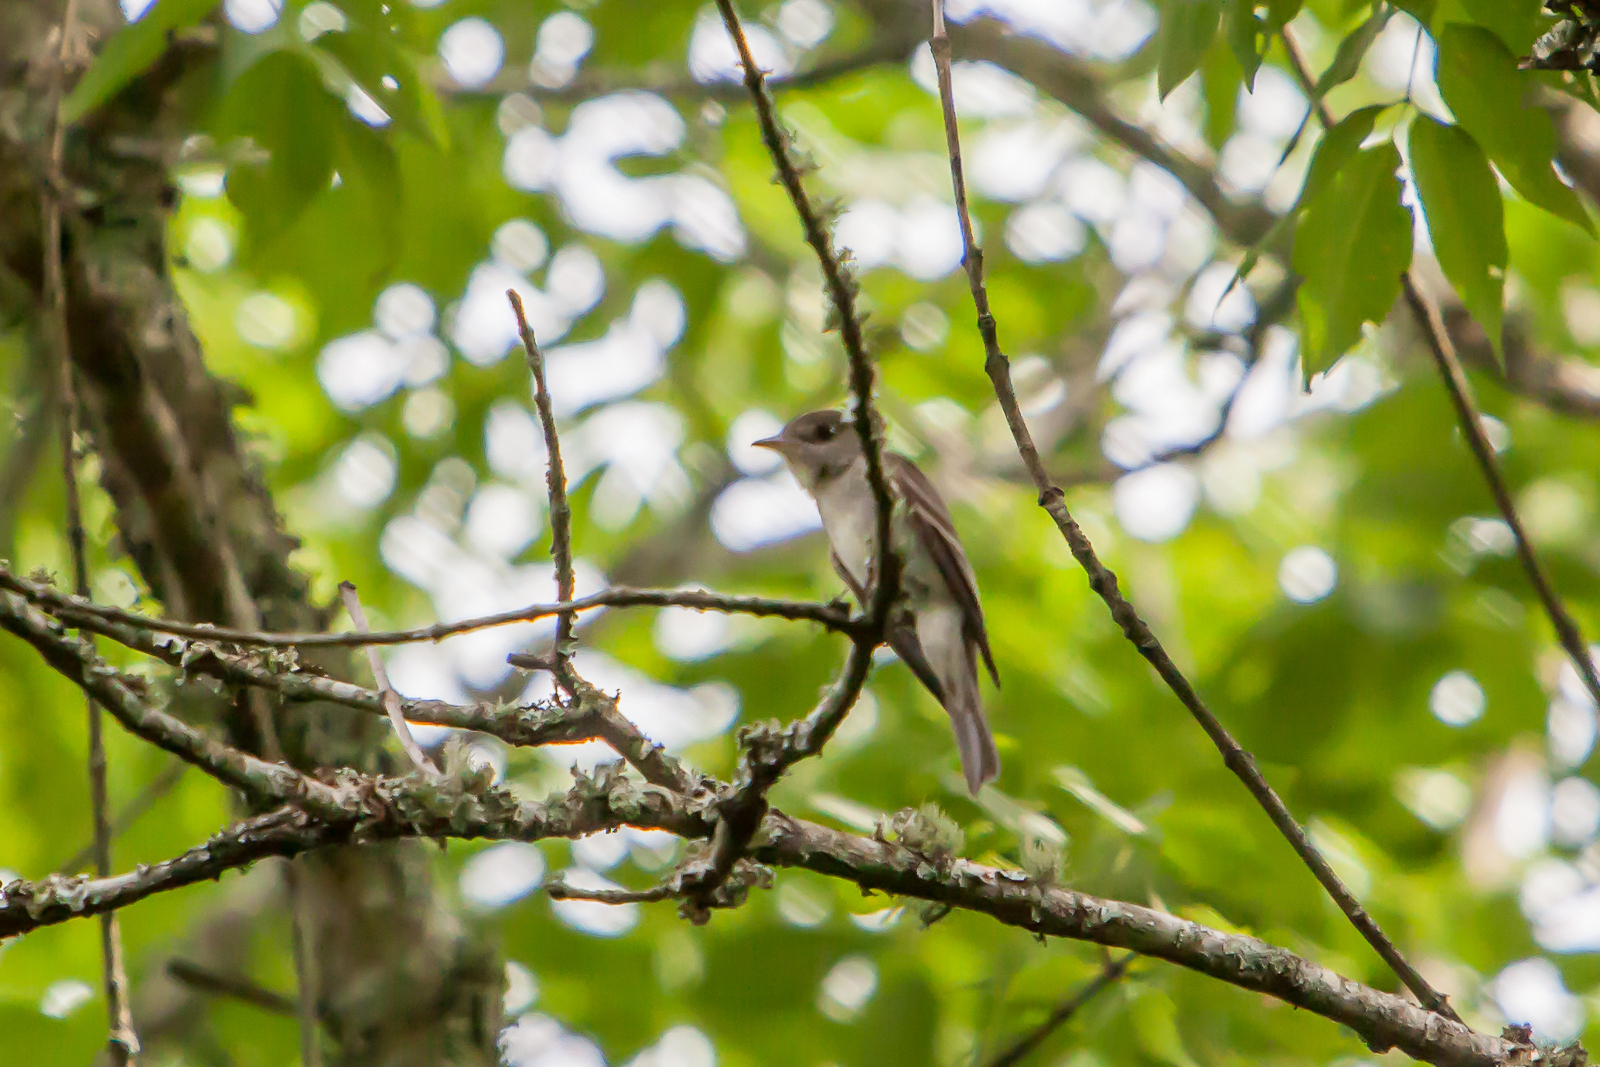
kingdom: Animalia
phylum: Chordata
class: Aves
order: Passeriformes
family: Tyrannidae
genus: Empidonax
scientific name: Empidonax virescens
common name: Acadian flycatcher
